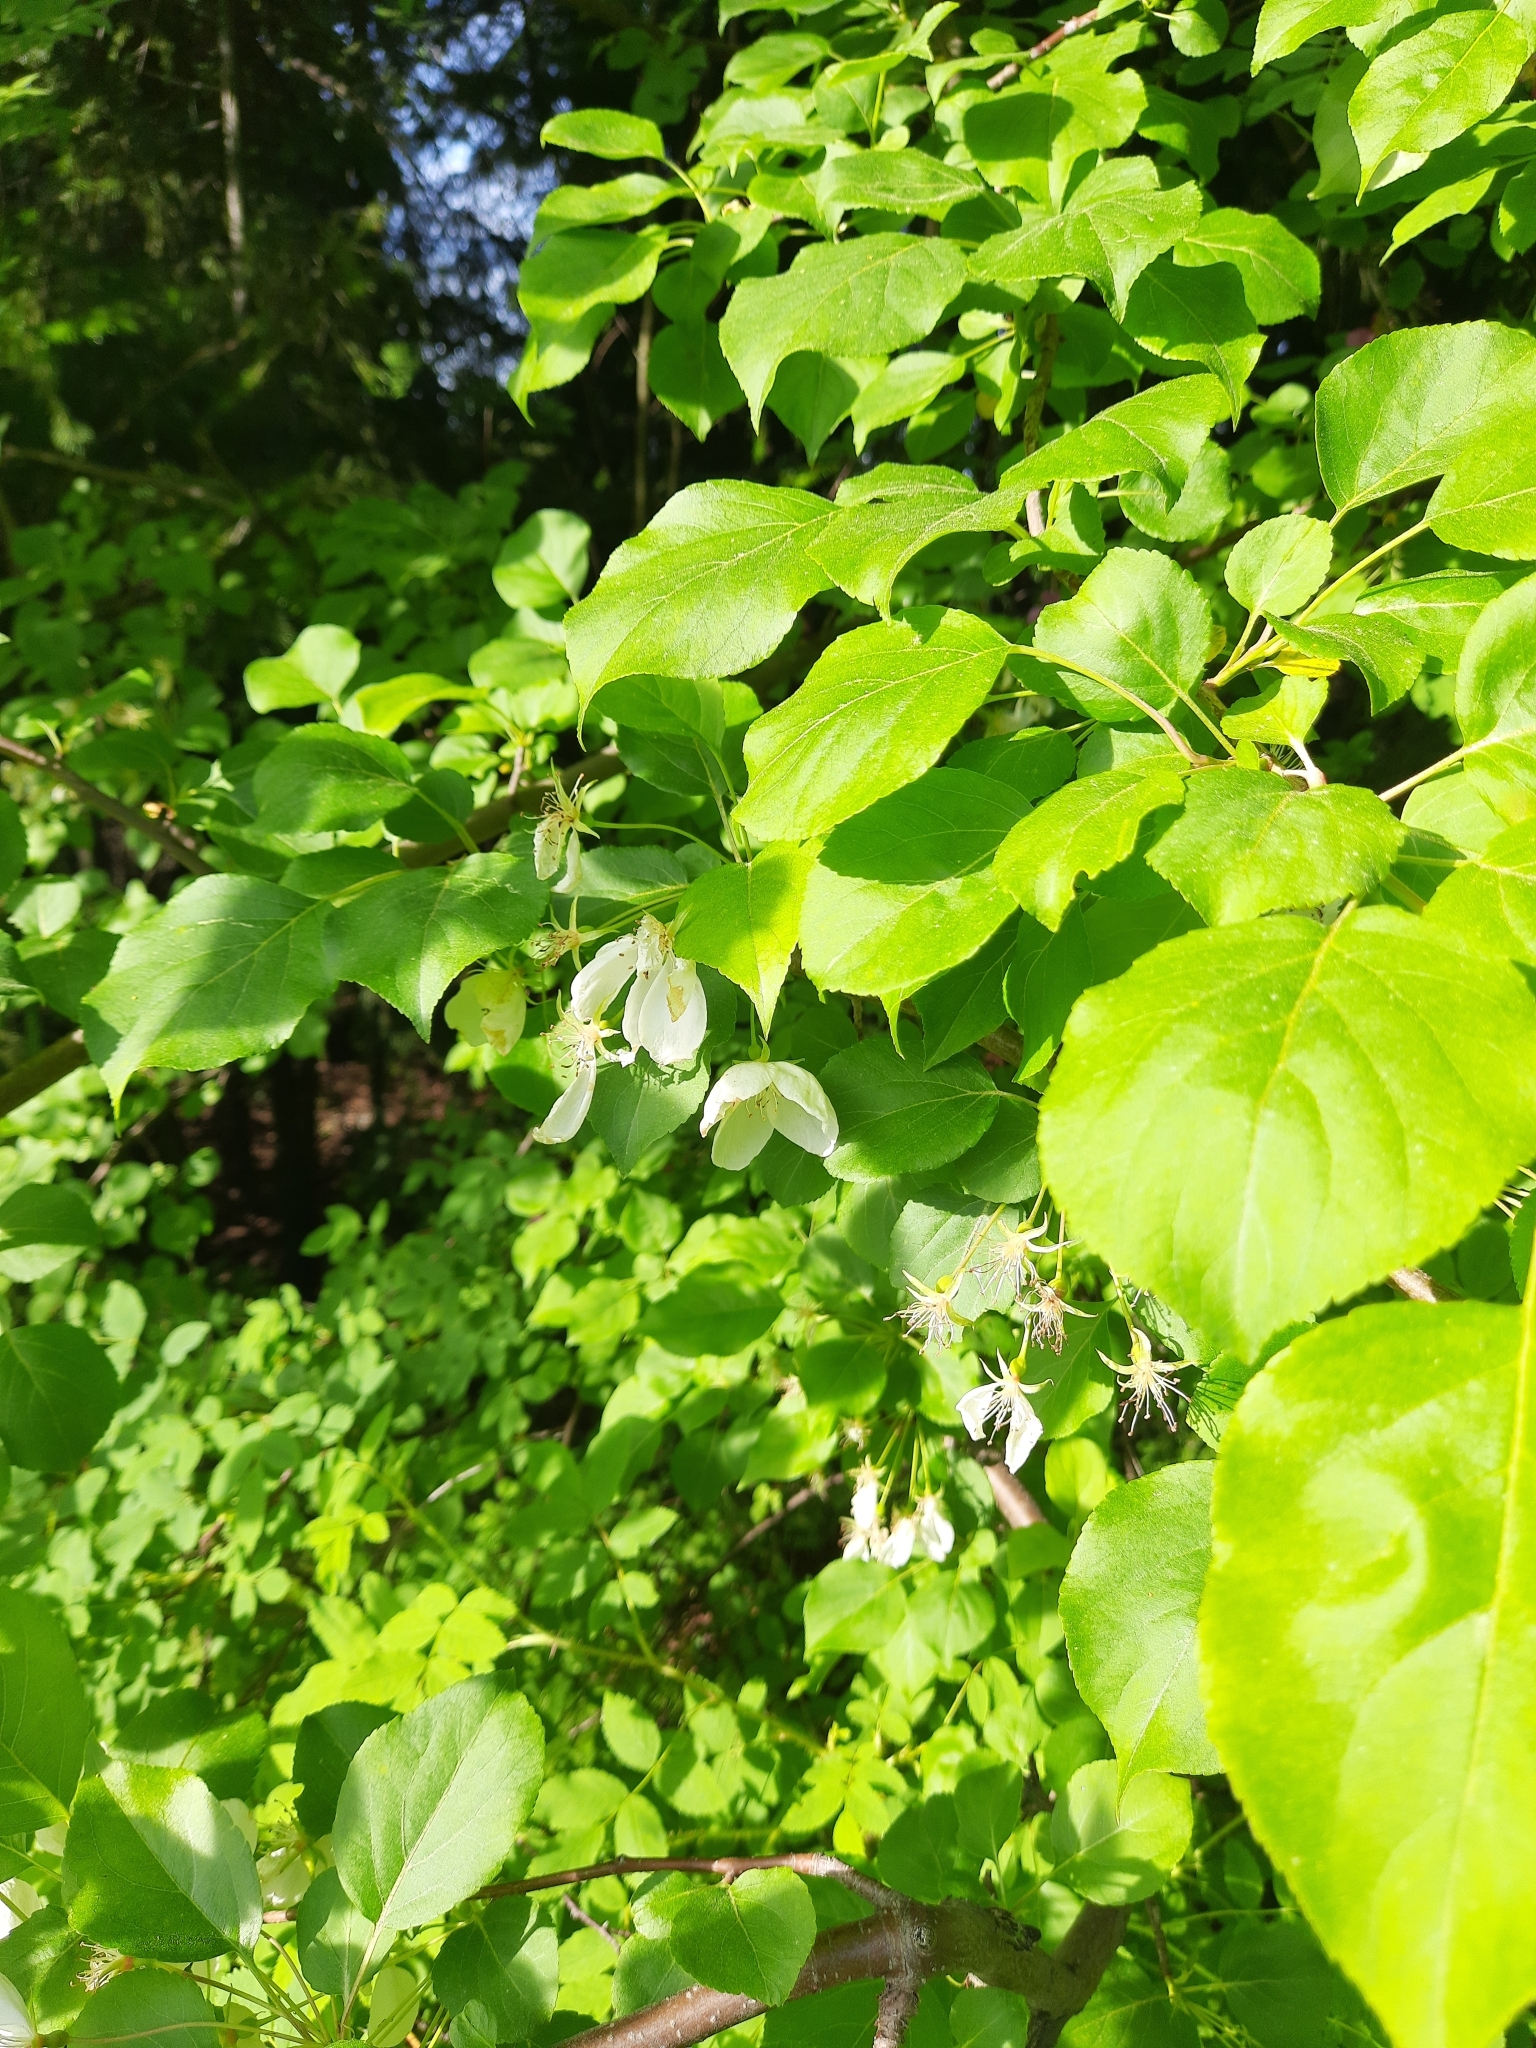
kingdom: Plantae
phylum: Tracheophyta
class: Magnoliopsida
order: Rosales
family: Rosaceae
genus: Malus
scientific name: Malus baccata
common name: Siberian crab
